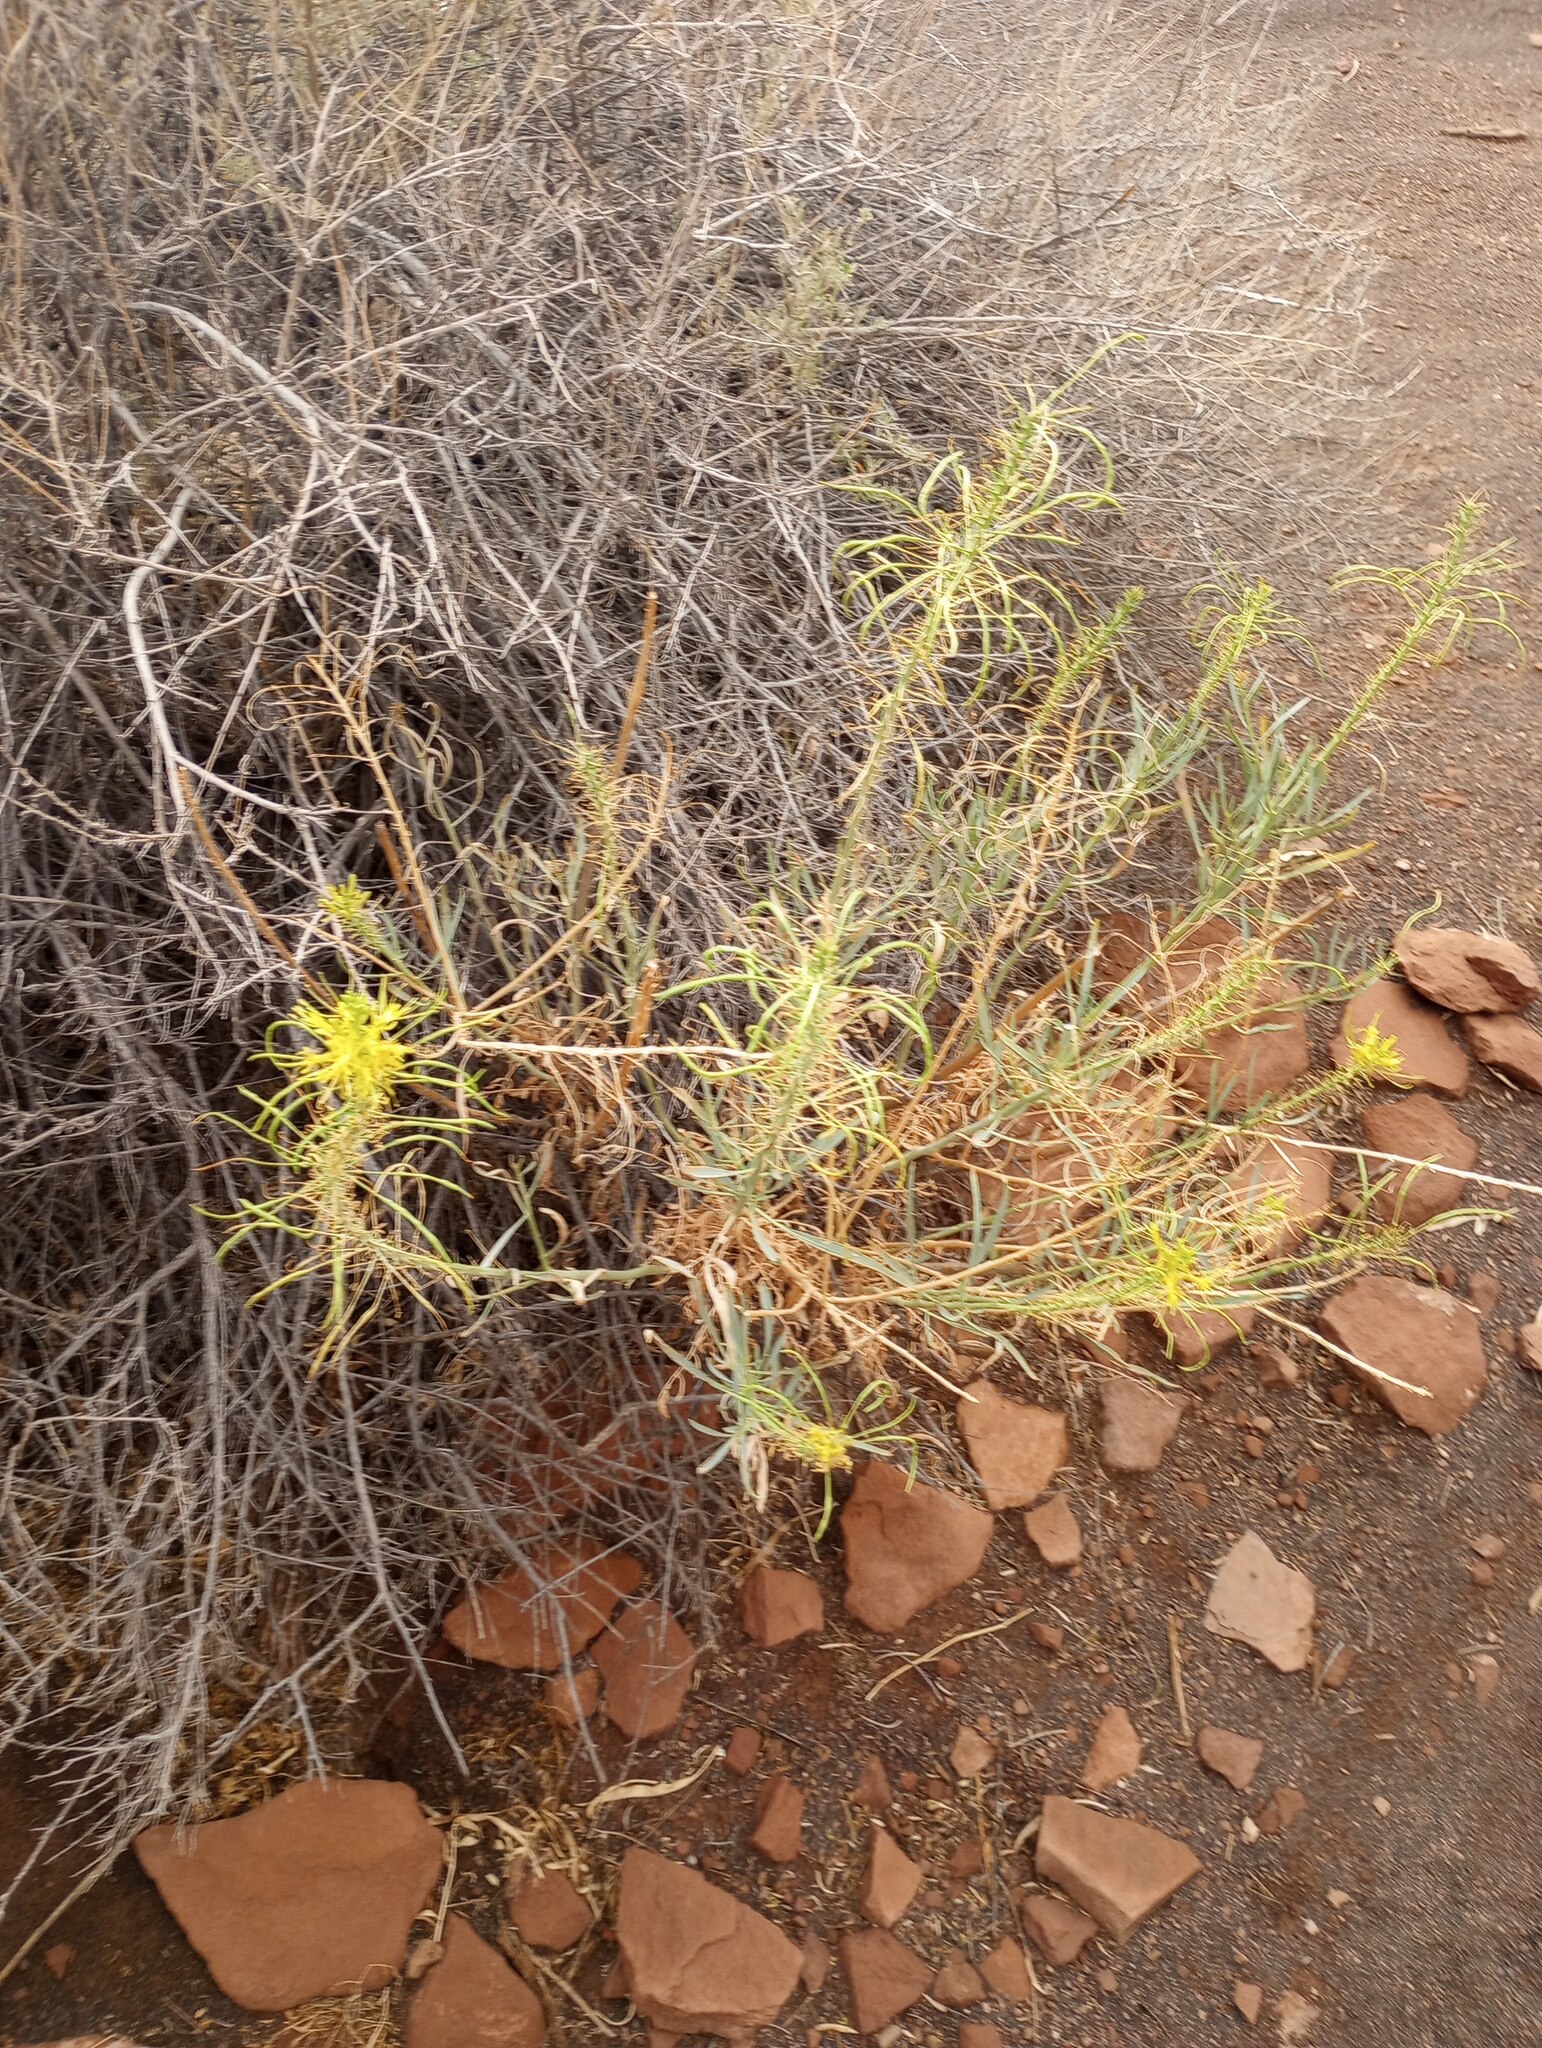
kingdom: Plantae
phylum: Tracheophyta
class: Magnoliopsida
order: Brassicales
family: Brassicaceae
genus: Stanleya
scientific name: Stanleya pinnata
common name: Prince's-plume
